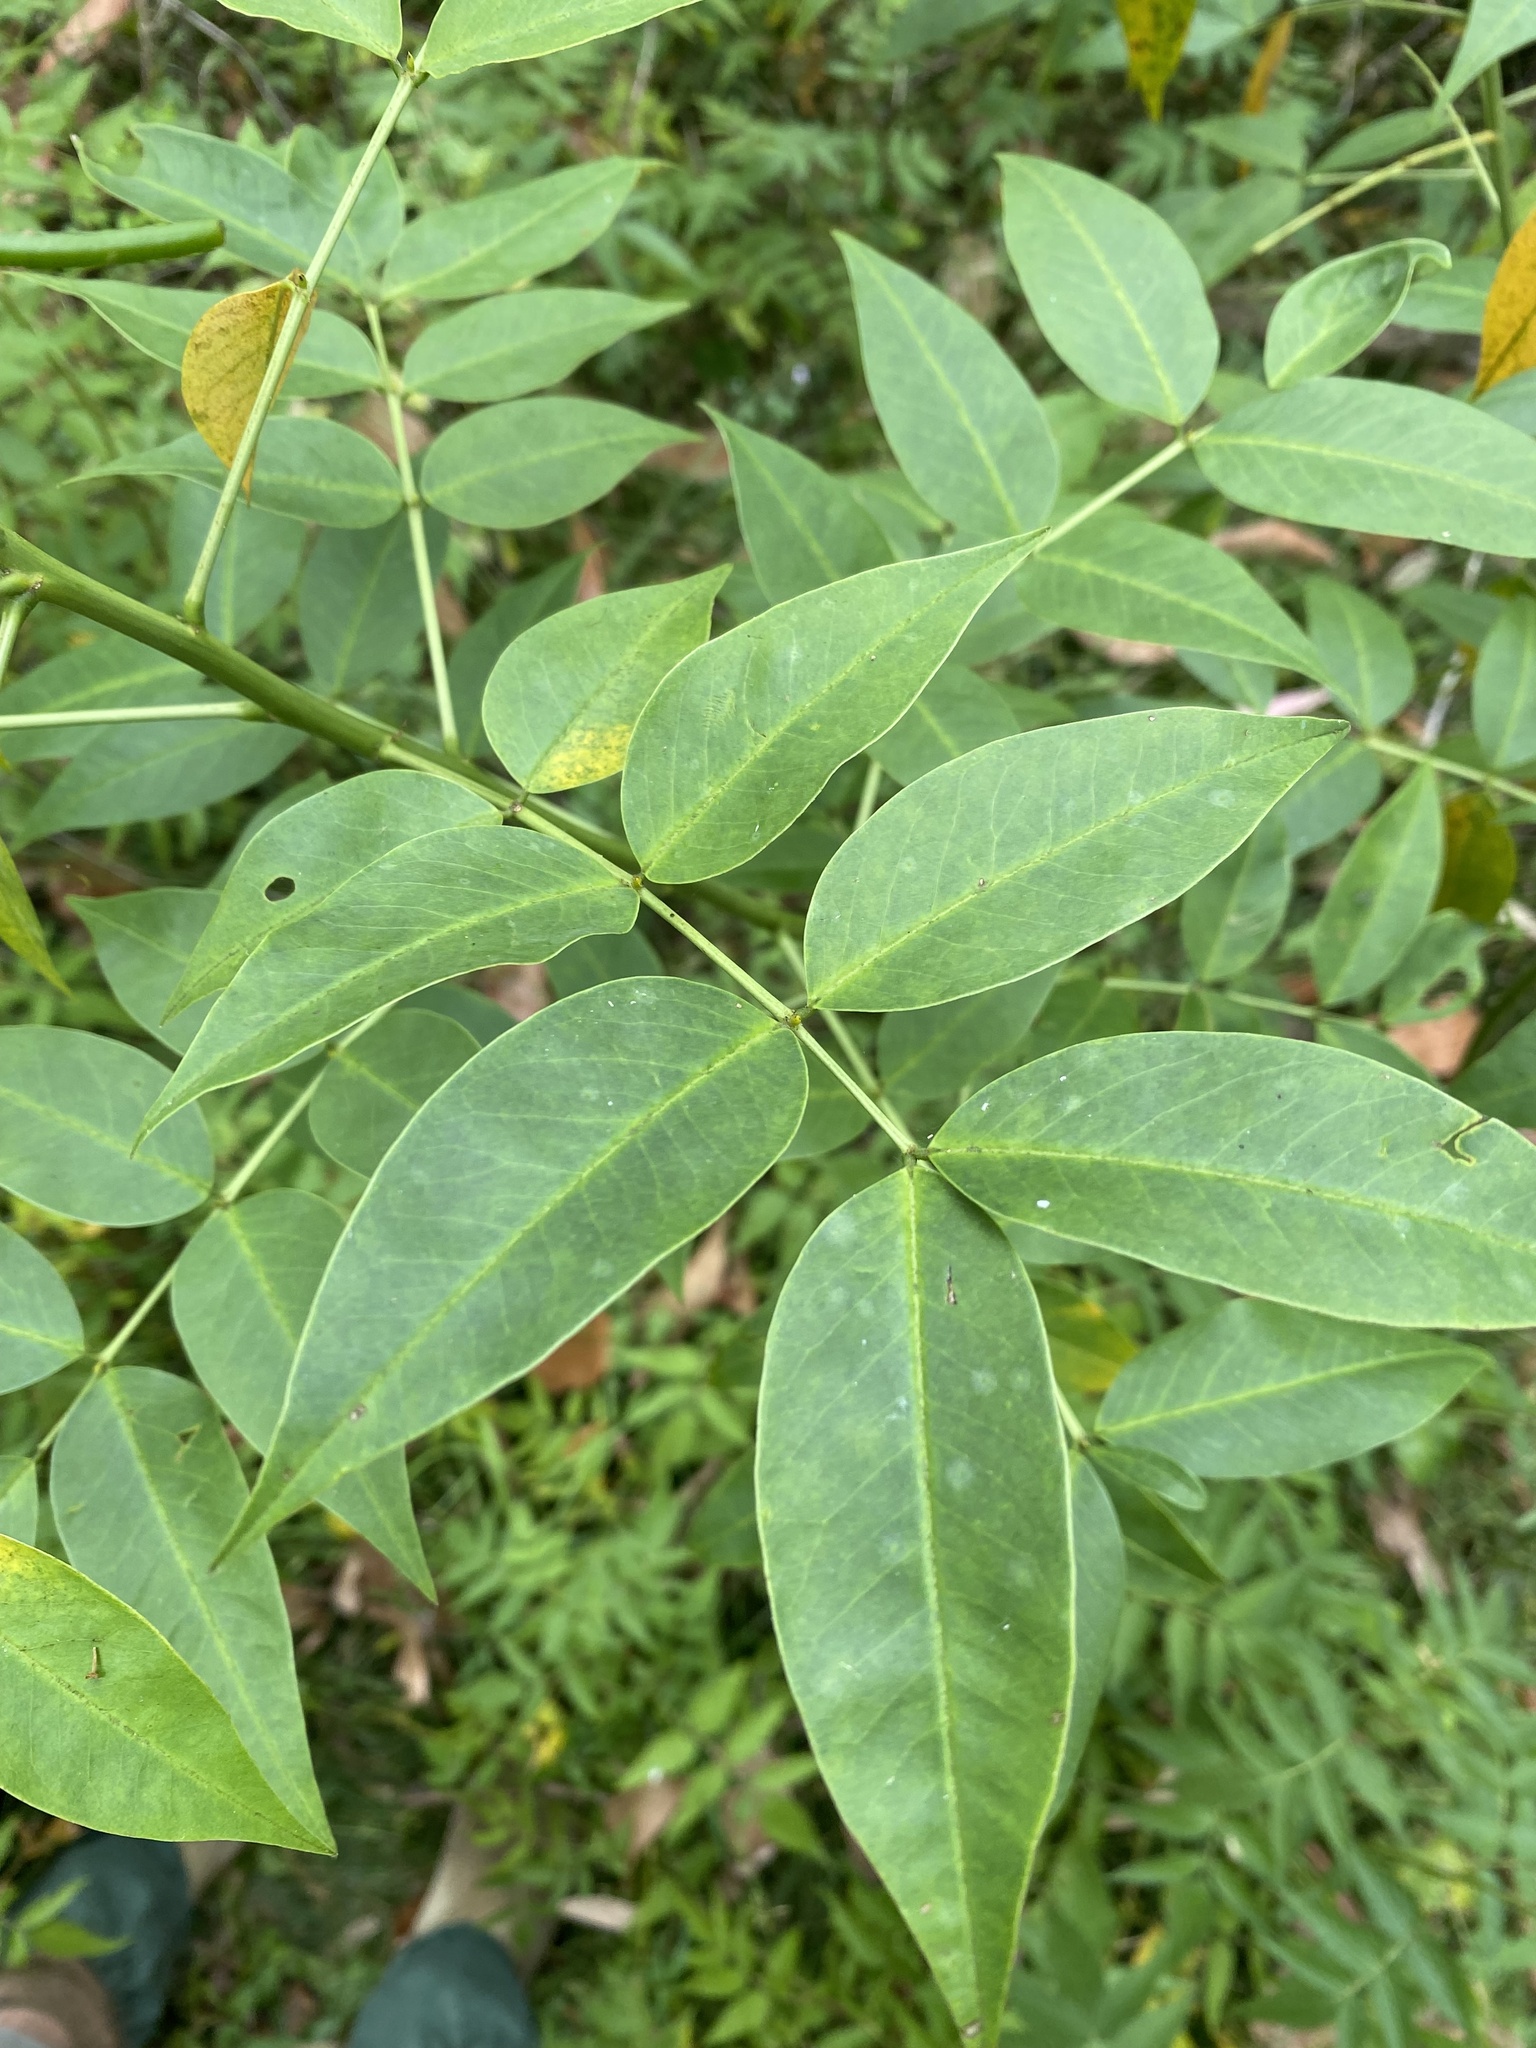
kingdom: Plantae
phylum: Tracheophyta
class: Magnoliopsida
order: Fabales
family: Fabaceae
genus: Senna
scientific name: Senna septemtrionalis
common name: Arsenic bush
